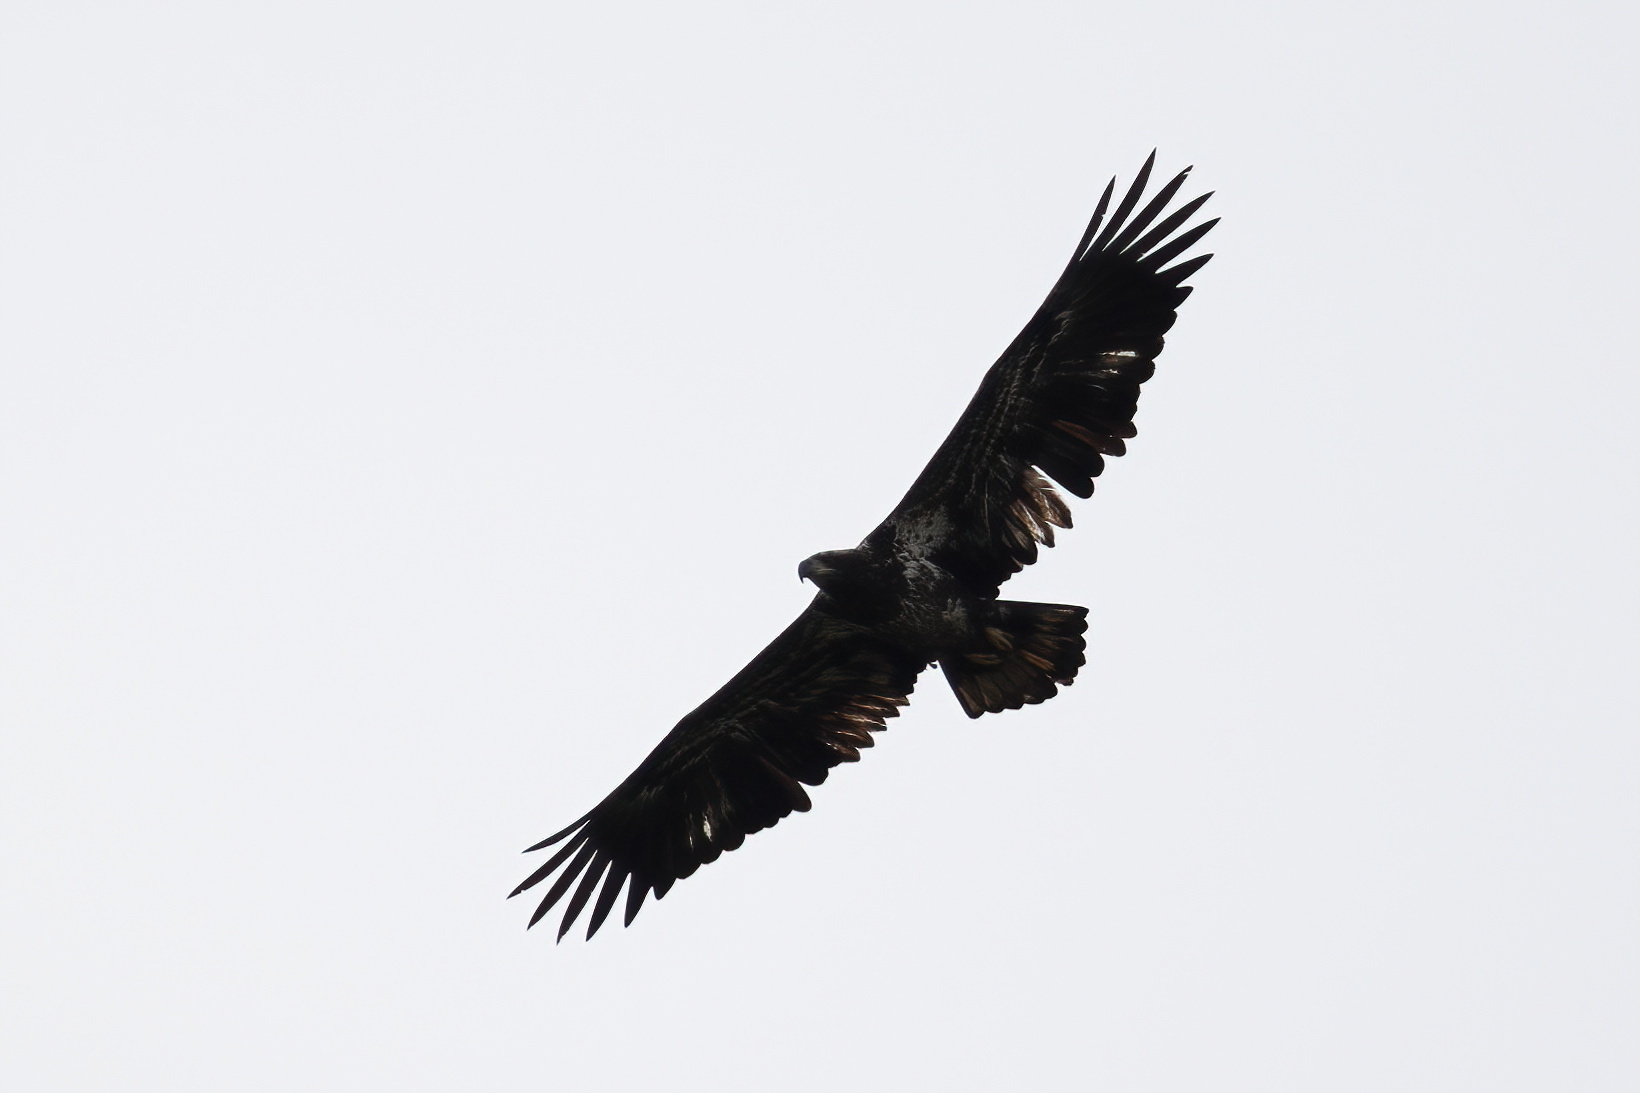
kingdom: Animalia
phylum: Chordata
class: Aves
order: Accipitriformes
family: Accipitridae
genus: Haliaeetus
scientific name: Haliaeetus leucocephalus
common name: Bald eagle
